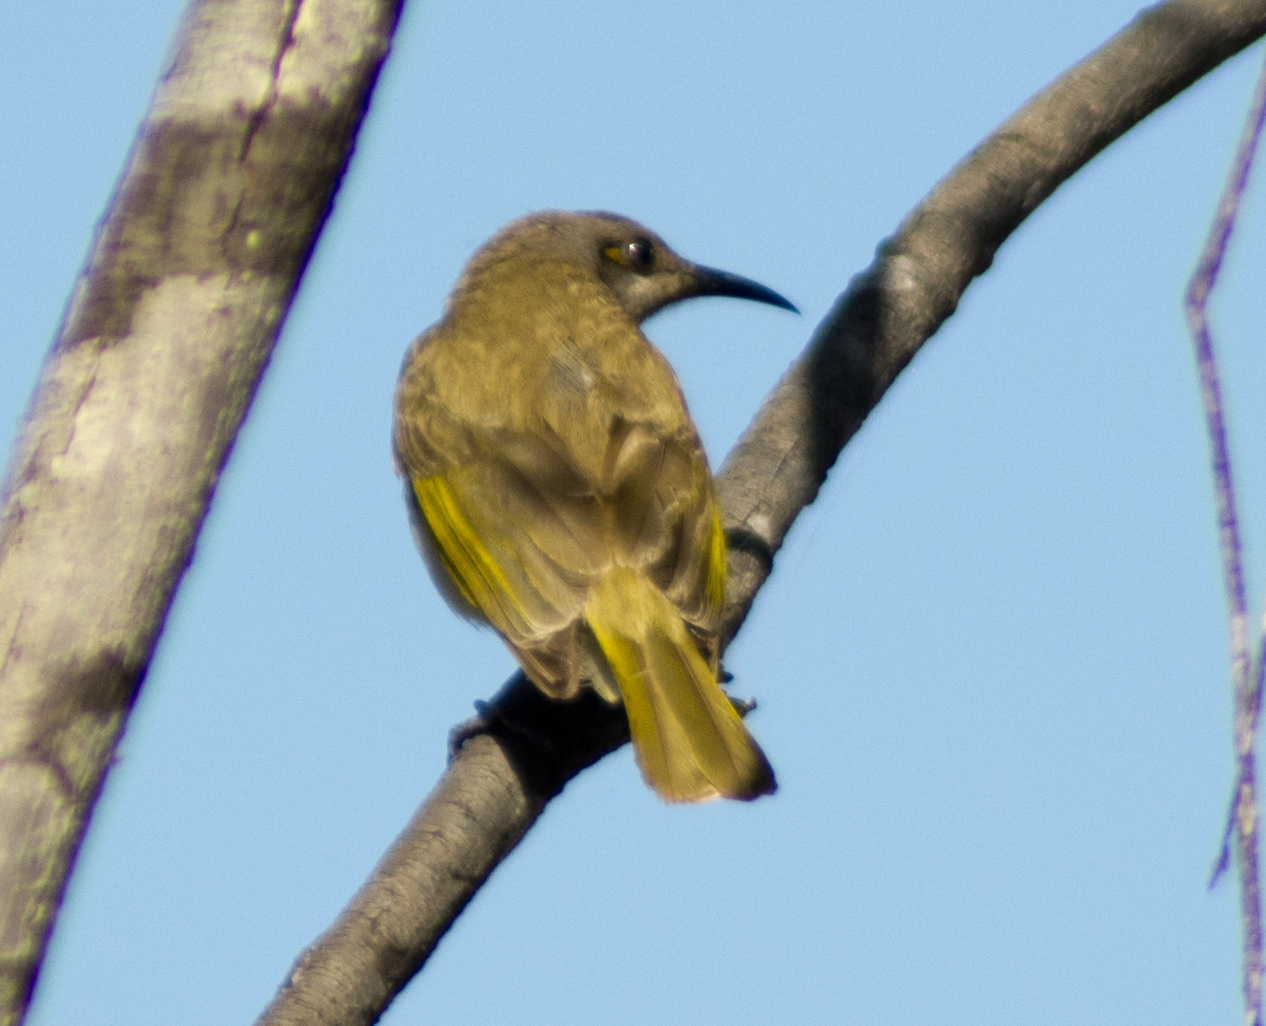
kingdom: Animalia
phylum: Chordata
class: Aves
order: Passeriformes
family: Meliphagidae
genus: Lichmera
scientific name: Lichmera indistincta
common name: Brown honeyeater
